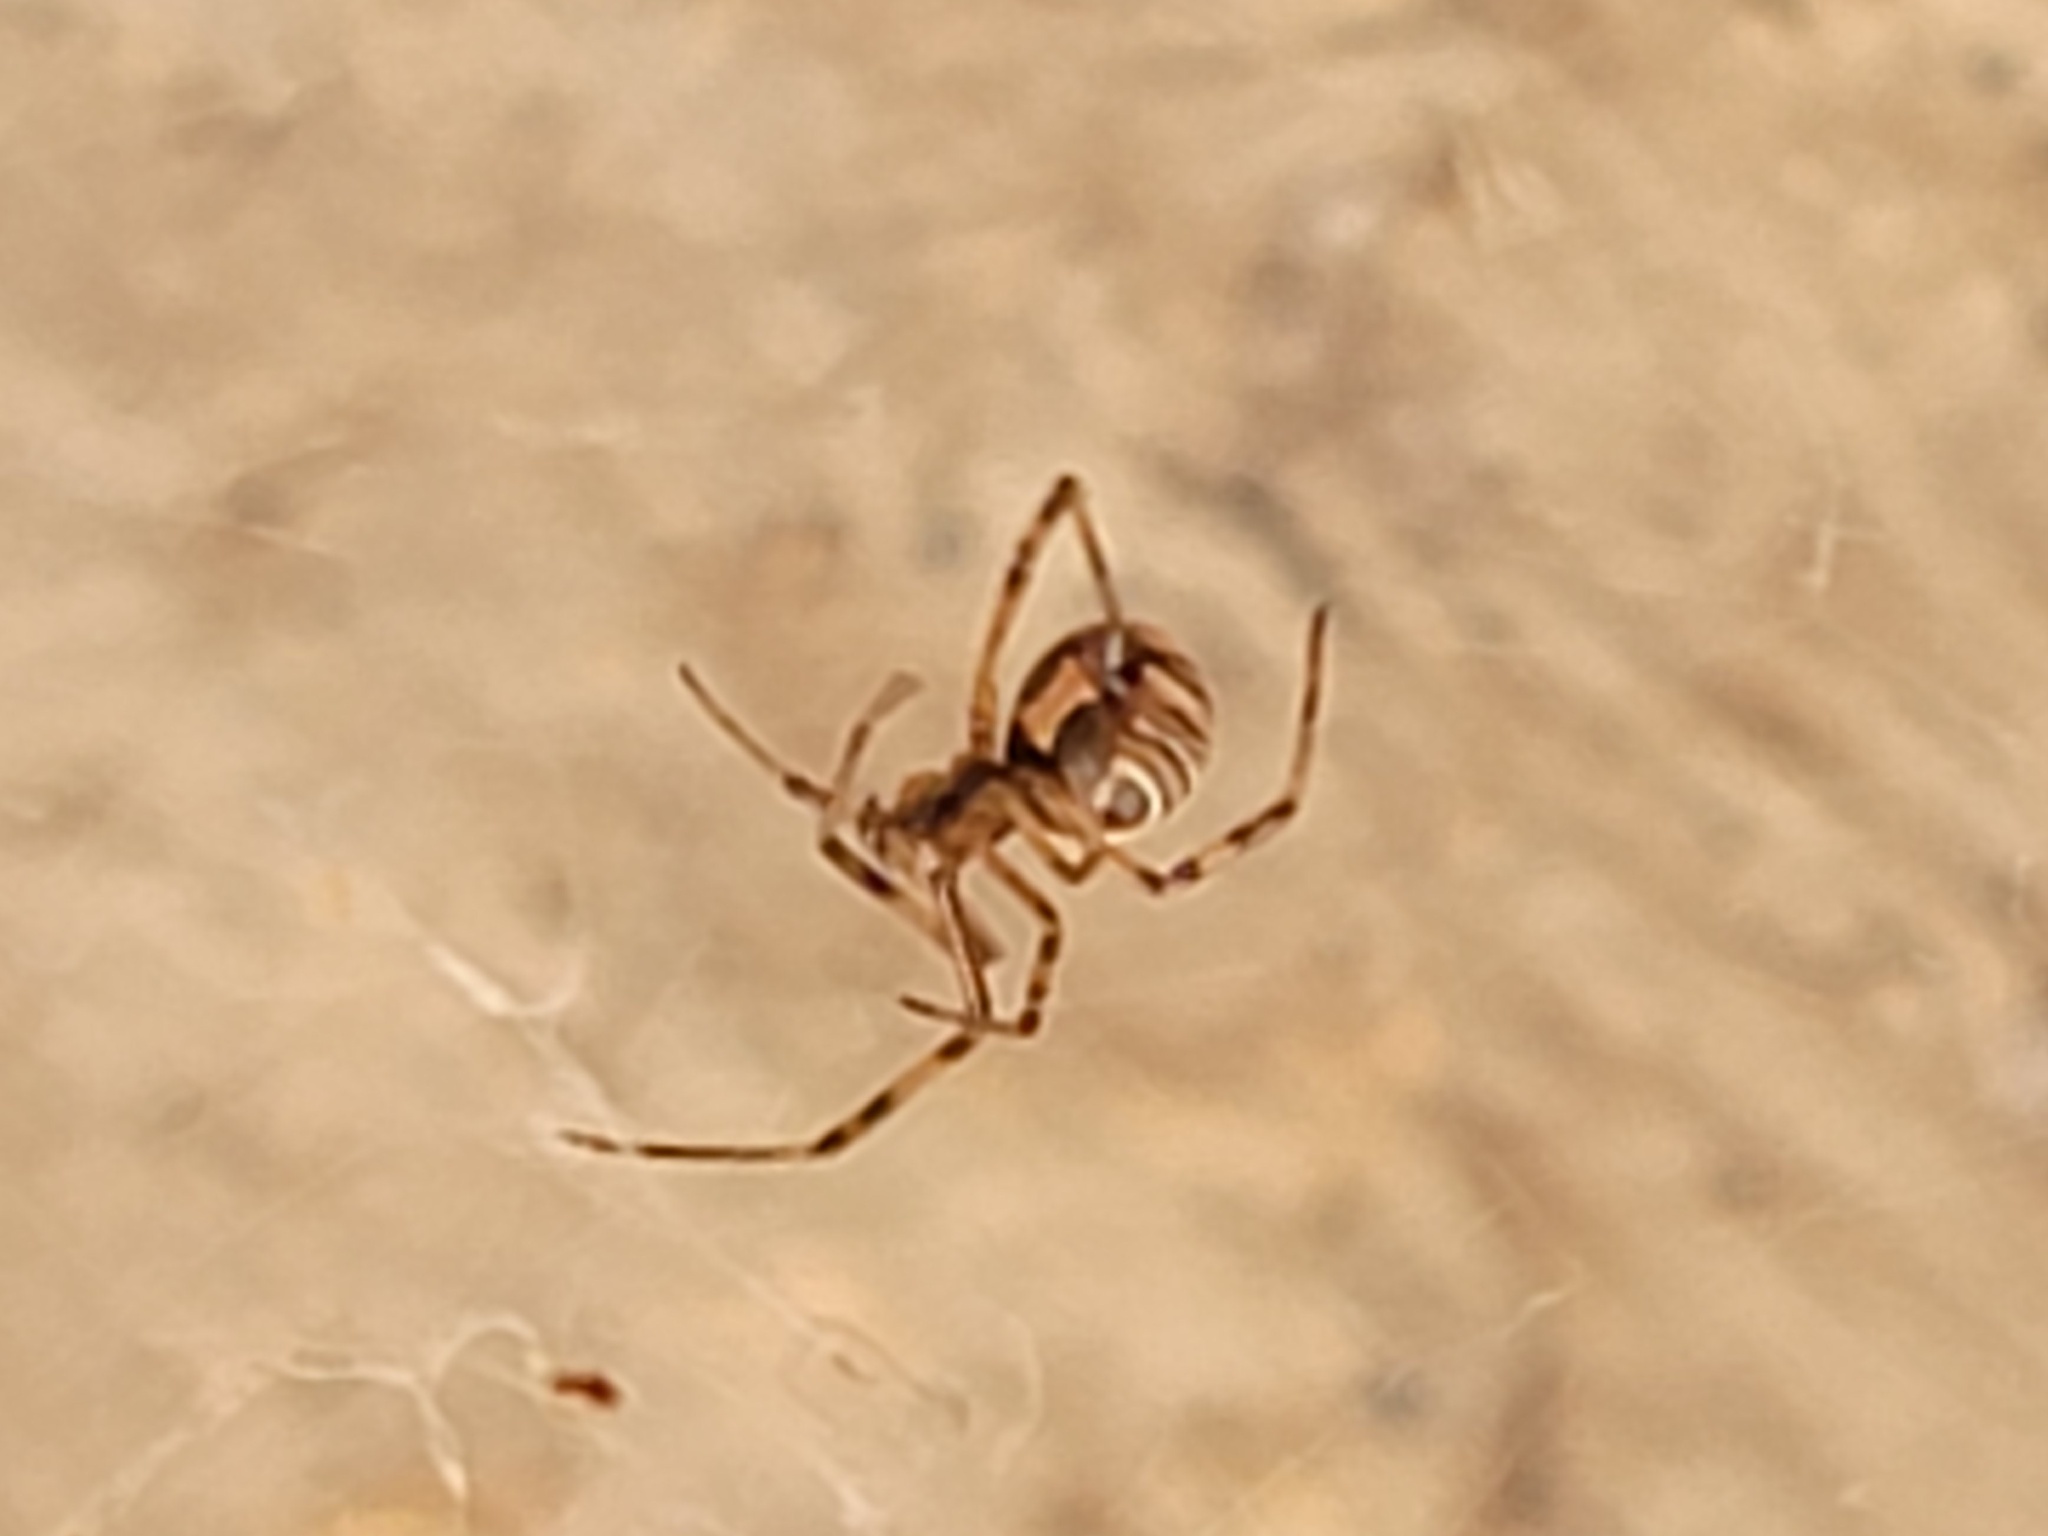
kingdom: Animalia
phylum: Arthropoda
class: Arachnida
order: Araneae
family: Theridiidae
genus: Latrodectus
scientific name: Latrodectus hesperus
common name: Western black widow
